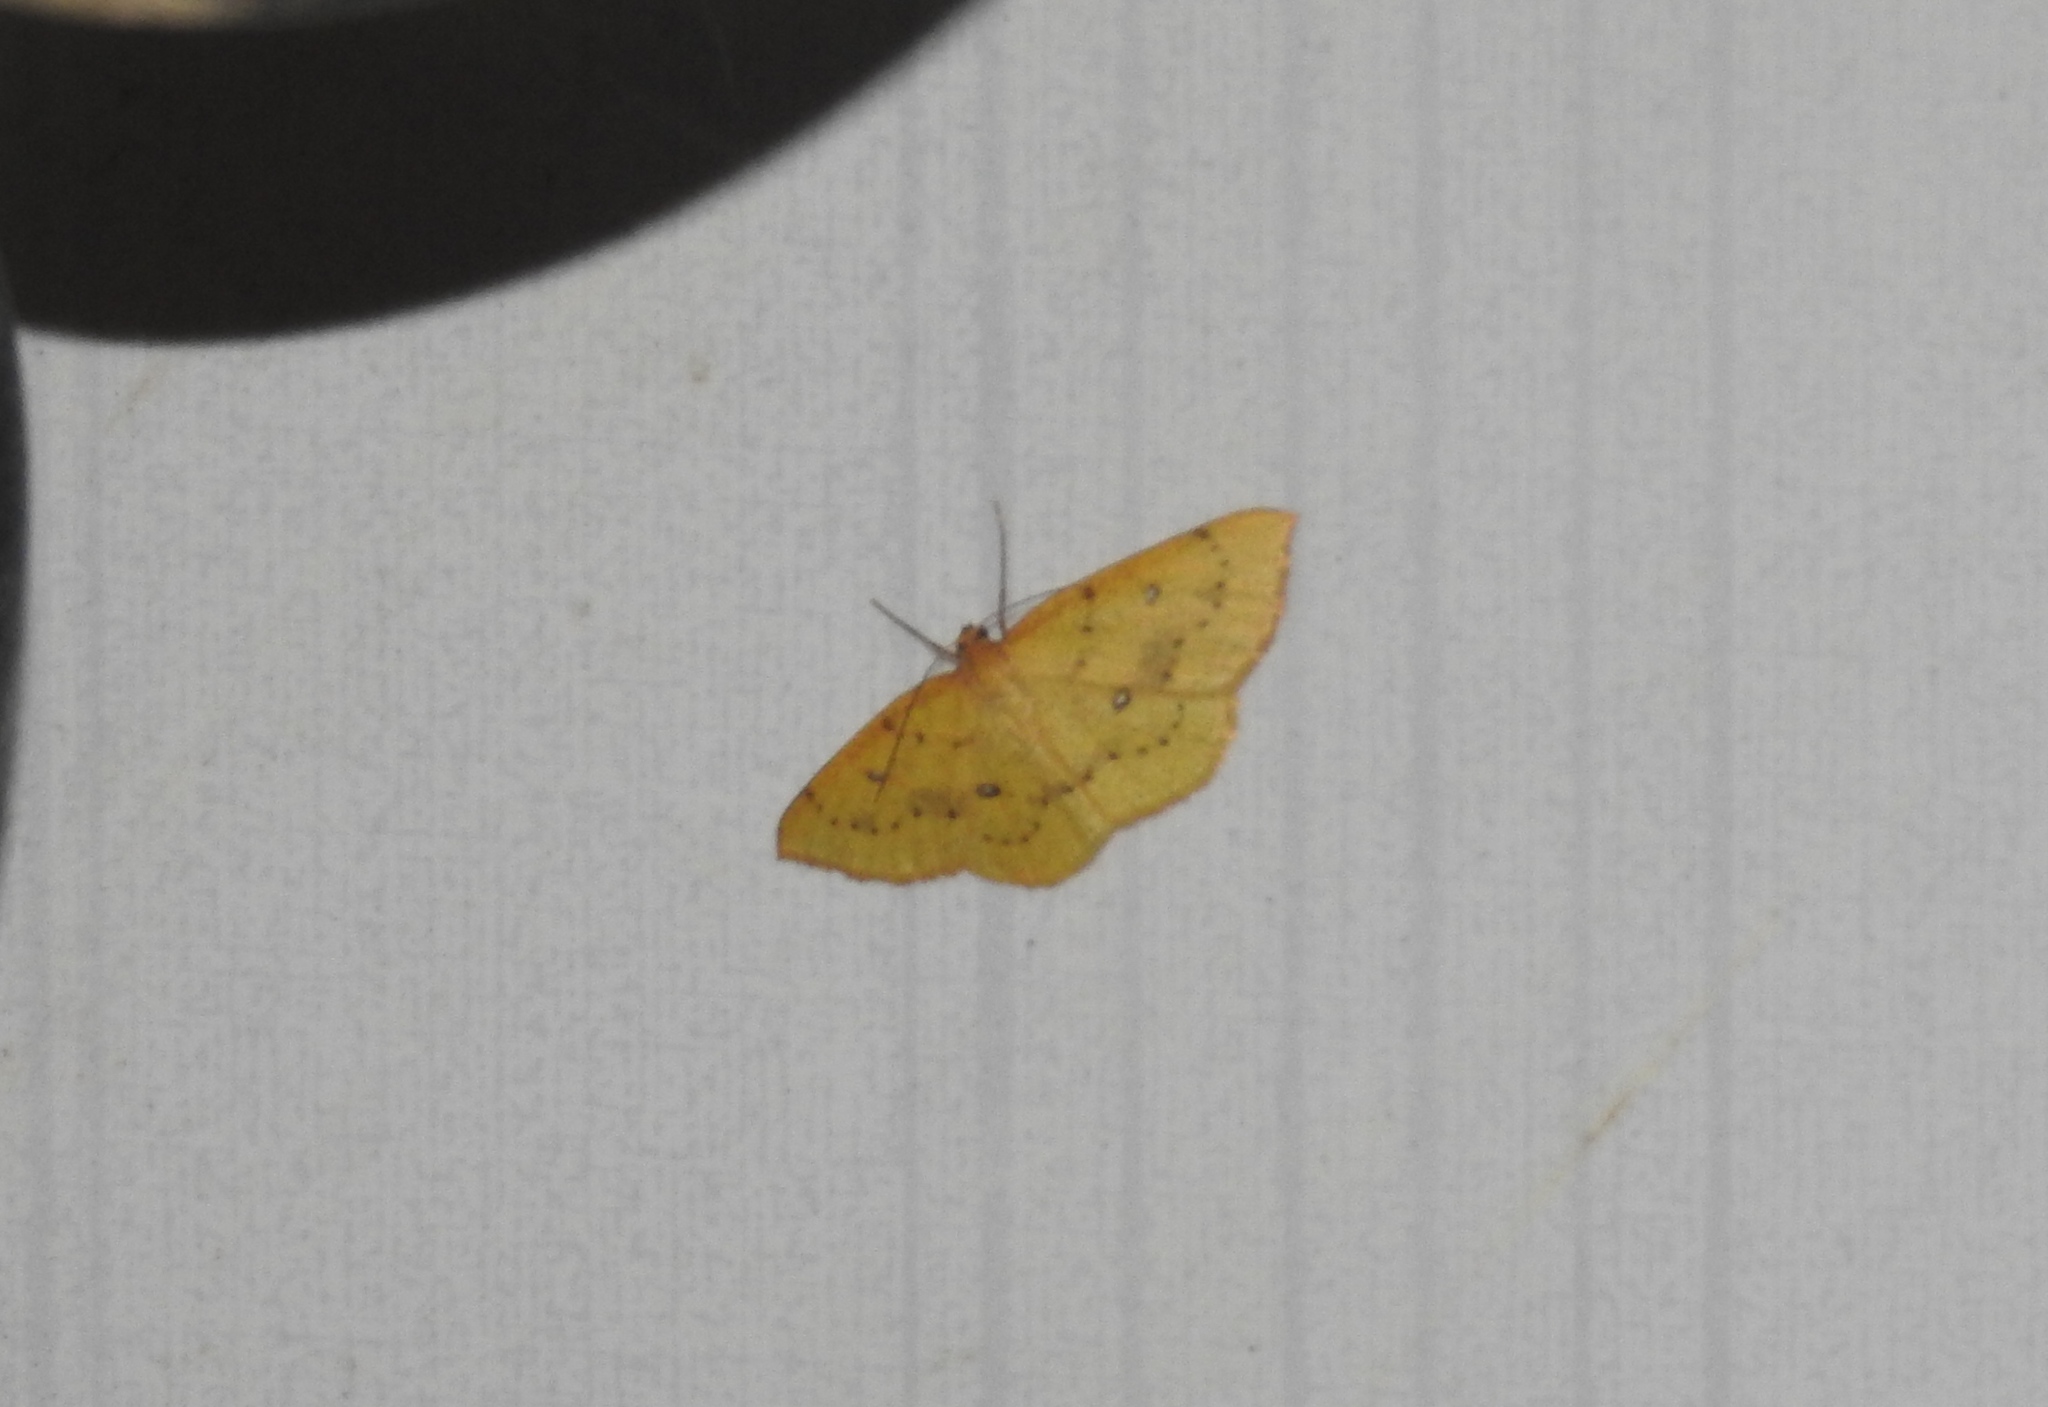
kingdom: Animalia
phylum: Arthropoda
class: Insecta
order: Lepidoptera
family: Geometridae
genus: Palaeaspilates
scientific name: Palaeaspilates Anisephyra ocularia
